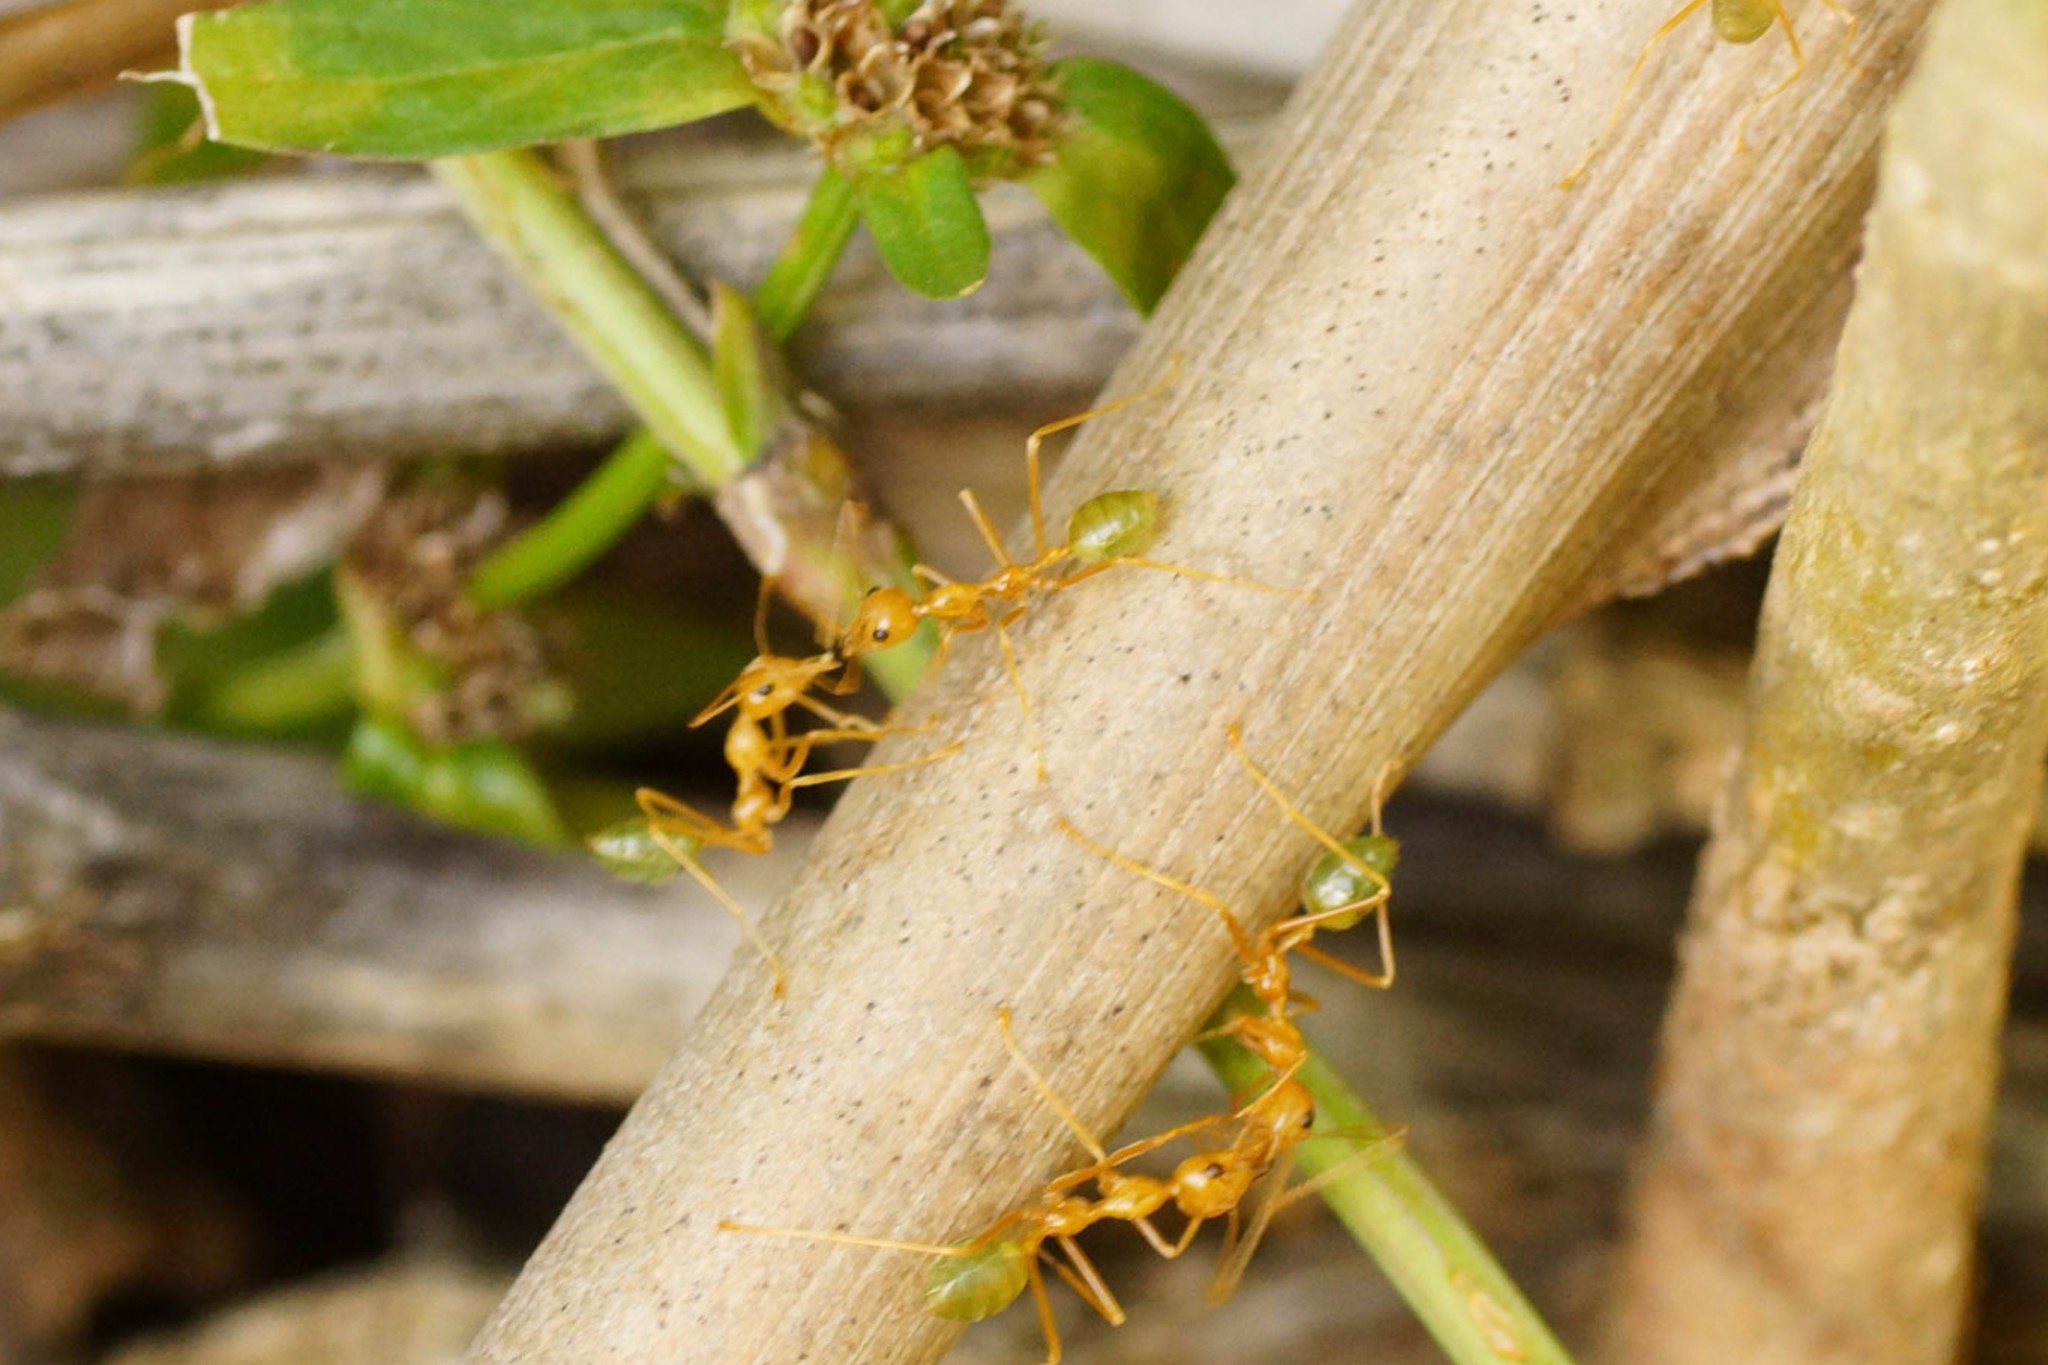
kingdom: Animalia
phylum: Arthropoda
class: Insecta
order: Hymenoptera
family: Formicidae
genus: Oecophylla
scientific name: Oecophylla smaragdina
